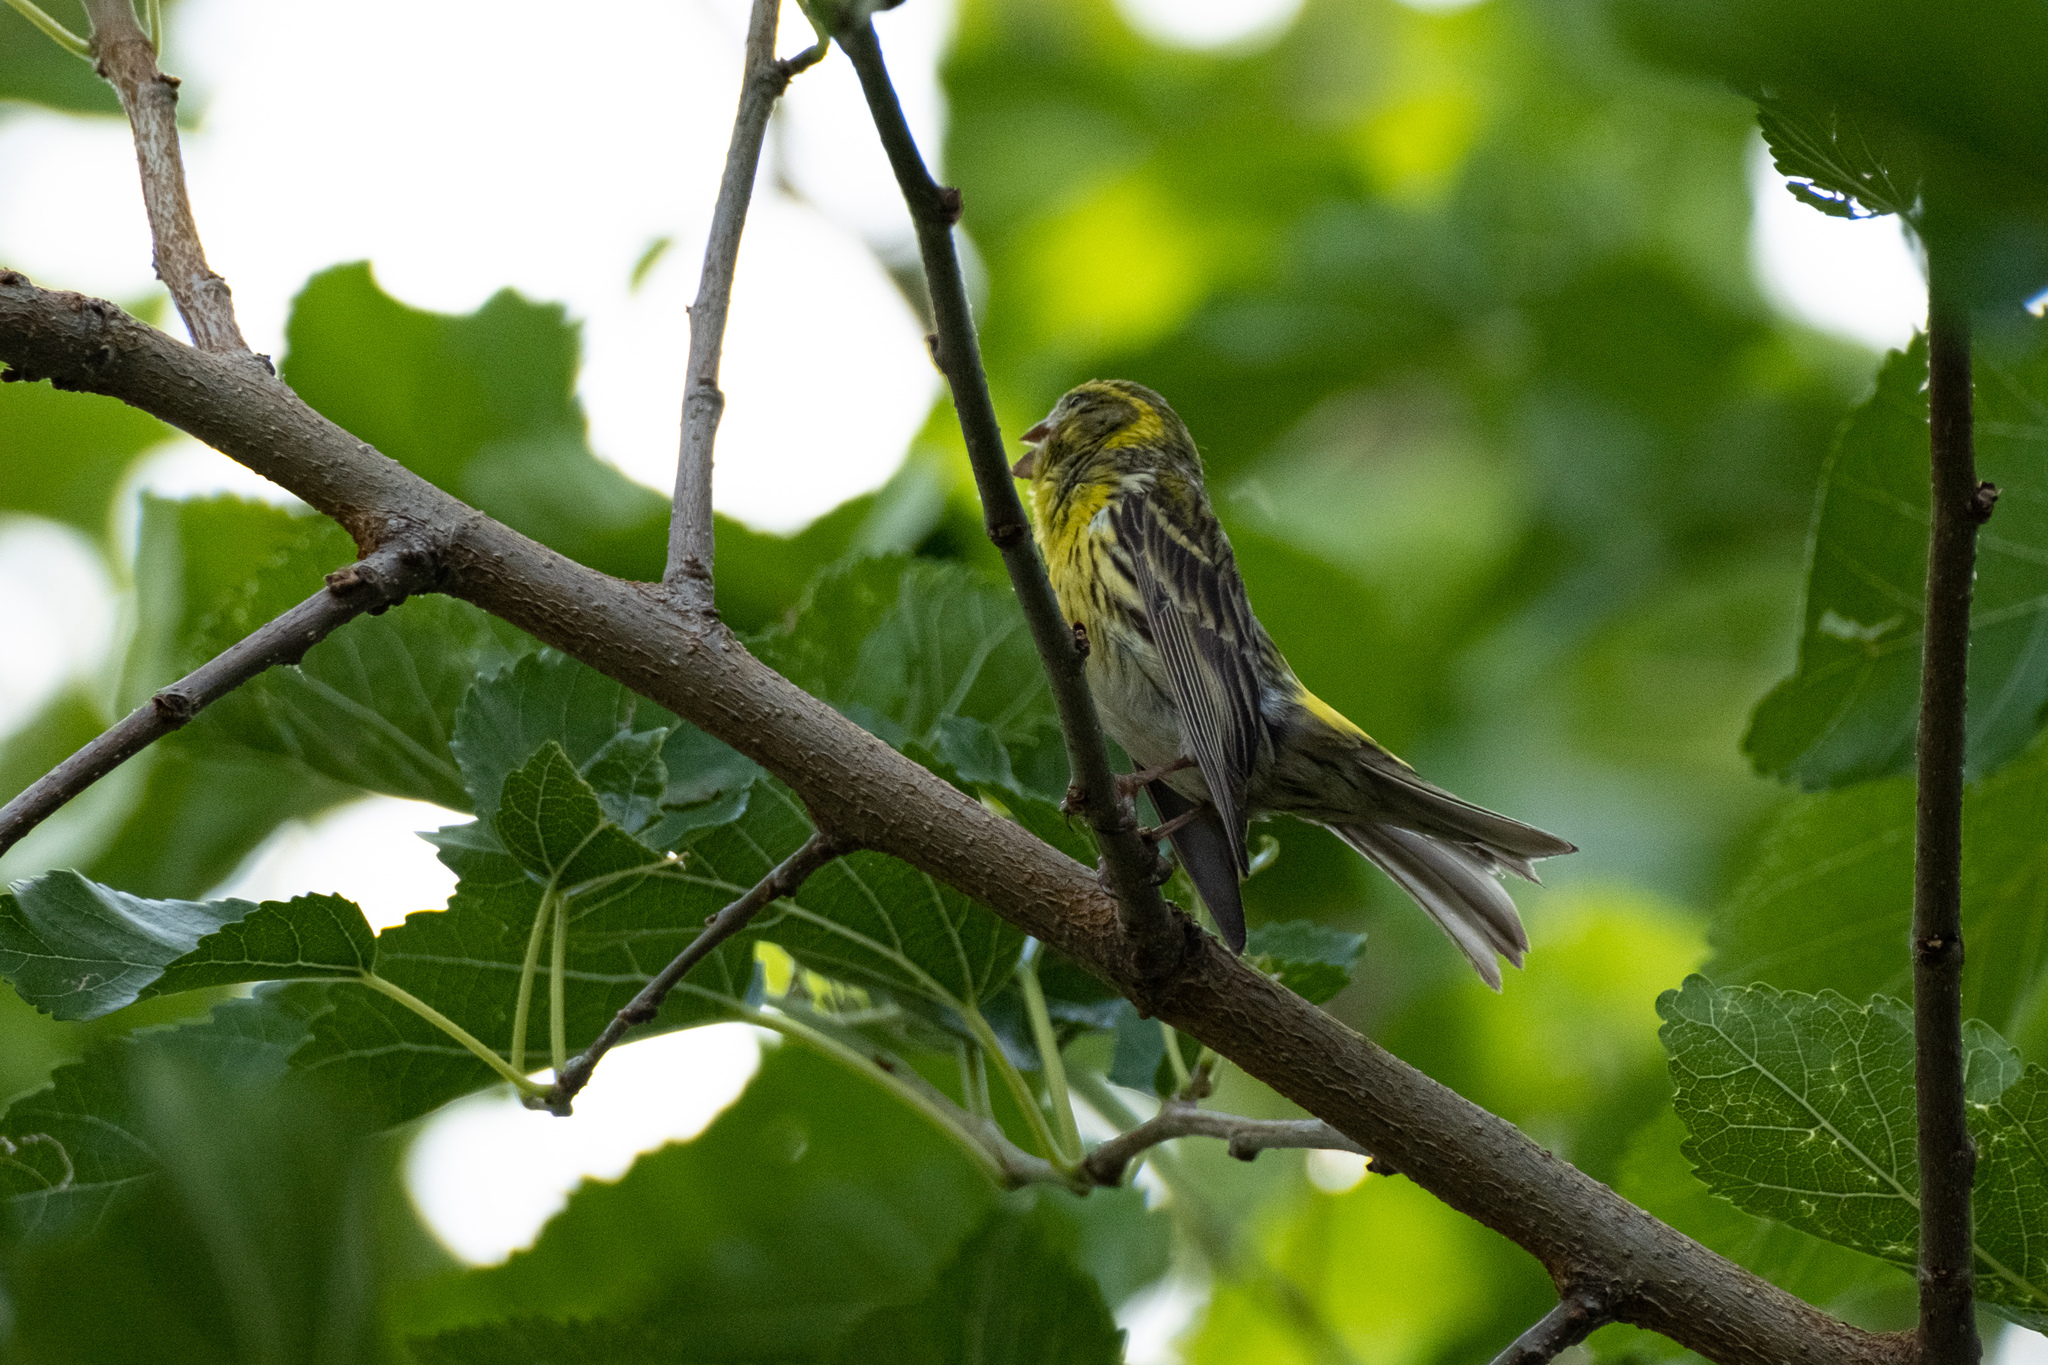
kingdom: Animalia
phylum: Chordata
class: Aves
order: Passeriformes
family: Fringillidae
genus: Serinus
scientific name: Serinus serinus
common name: European serin
